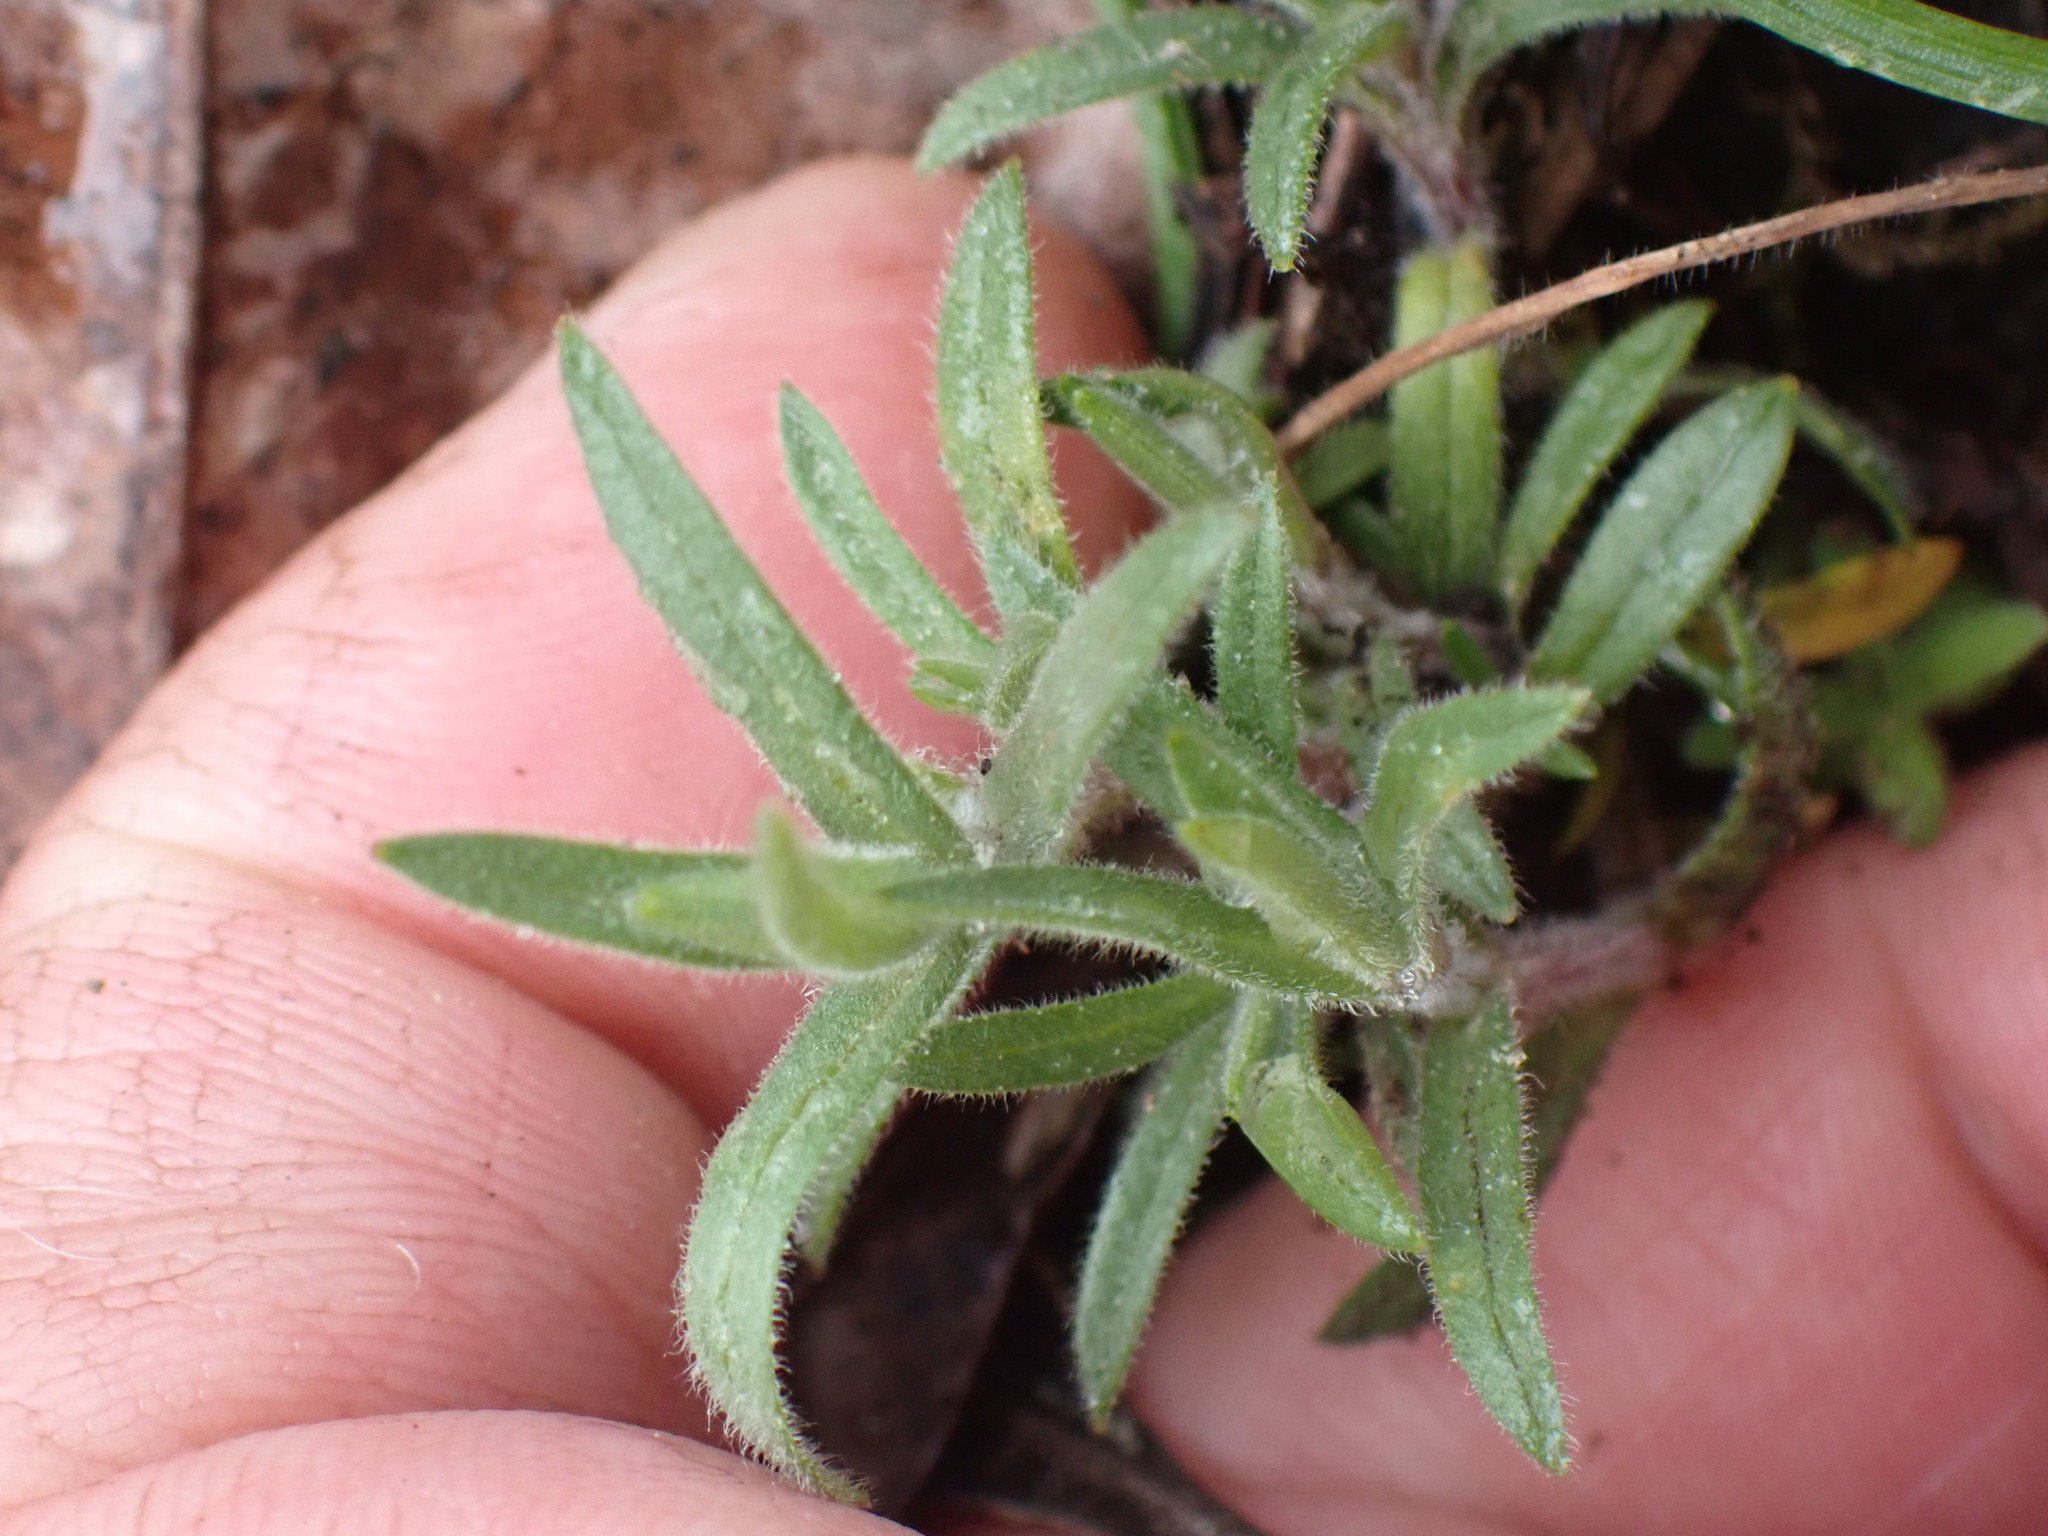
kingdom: Plantae
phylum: Tracheophyta
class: Magnoliopsida
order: Caryophyllales
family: Caryophyllaceae
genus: Cerastium
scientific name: Cerastium arvense
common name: Field mouse-ear
